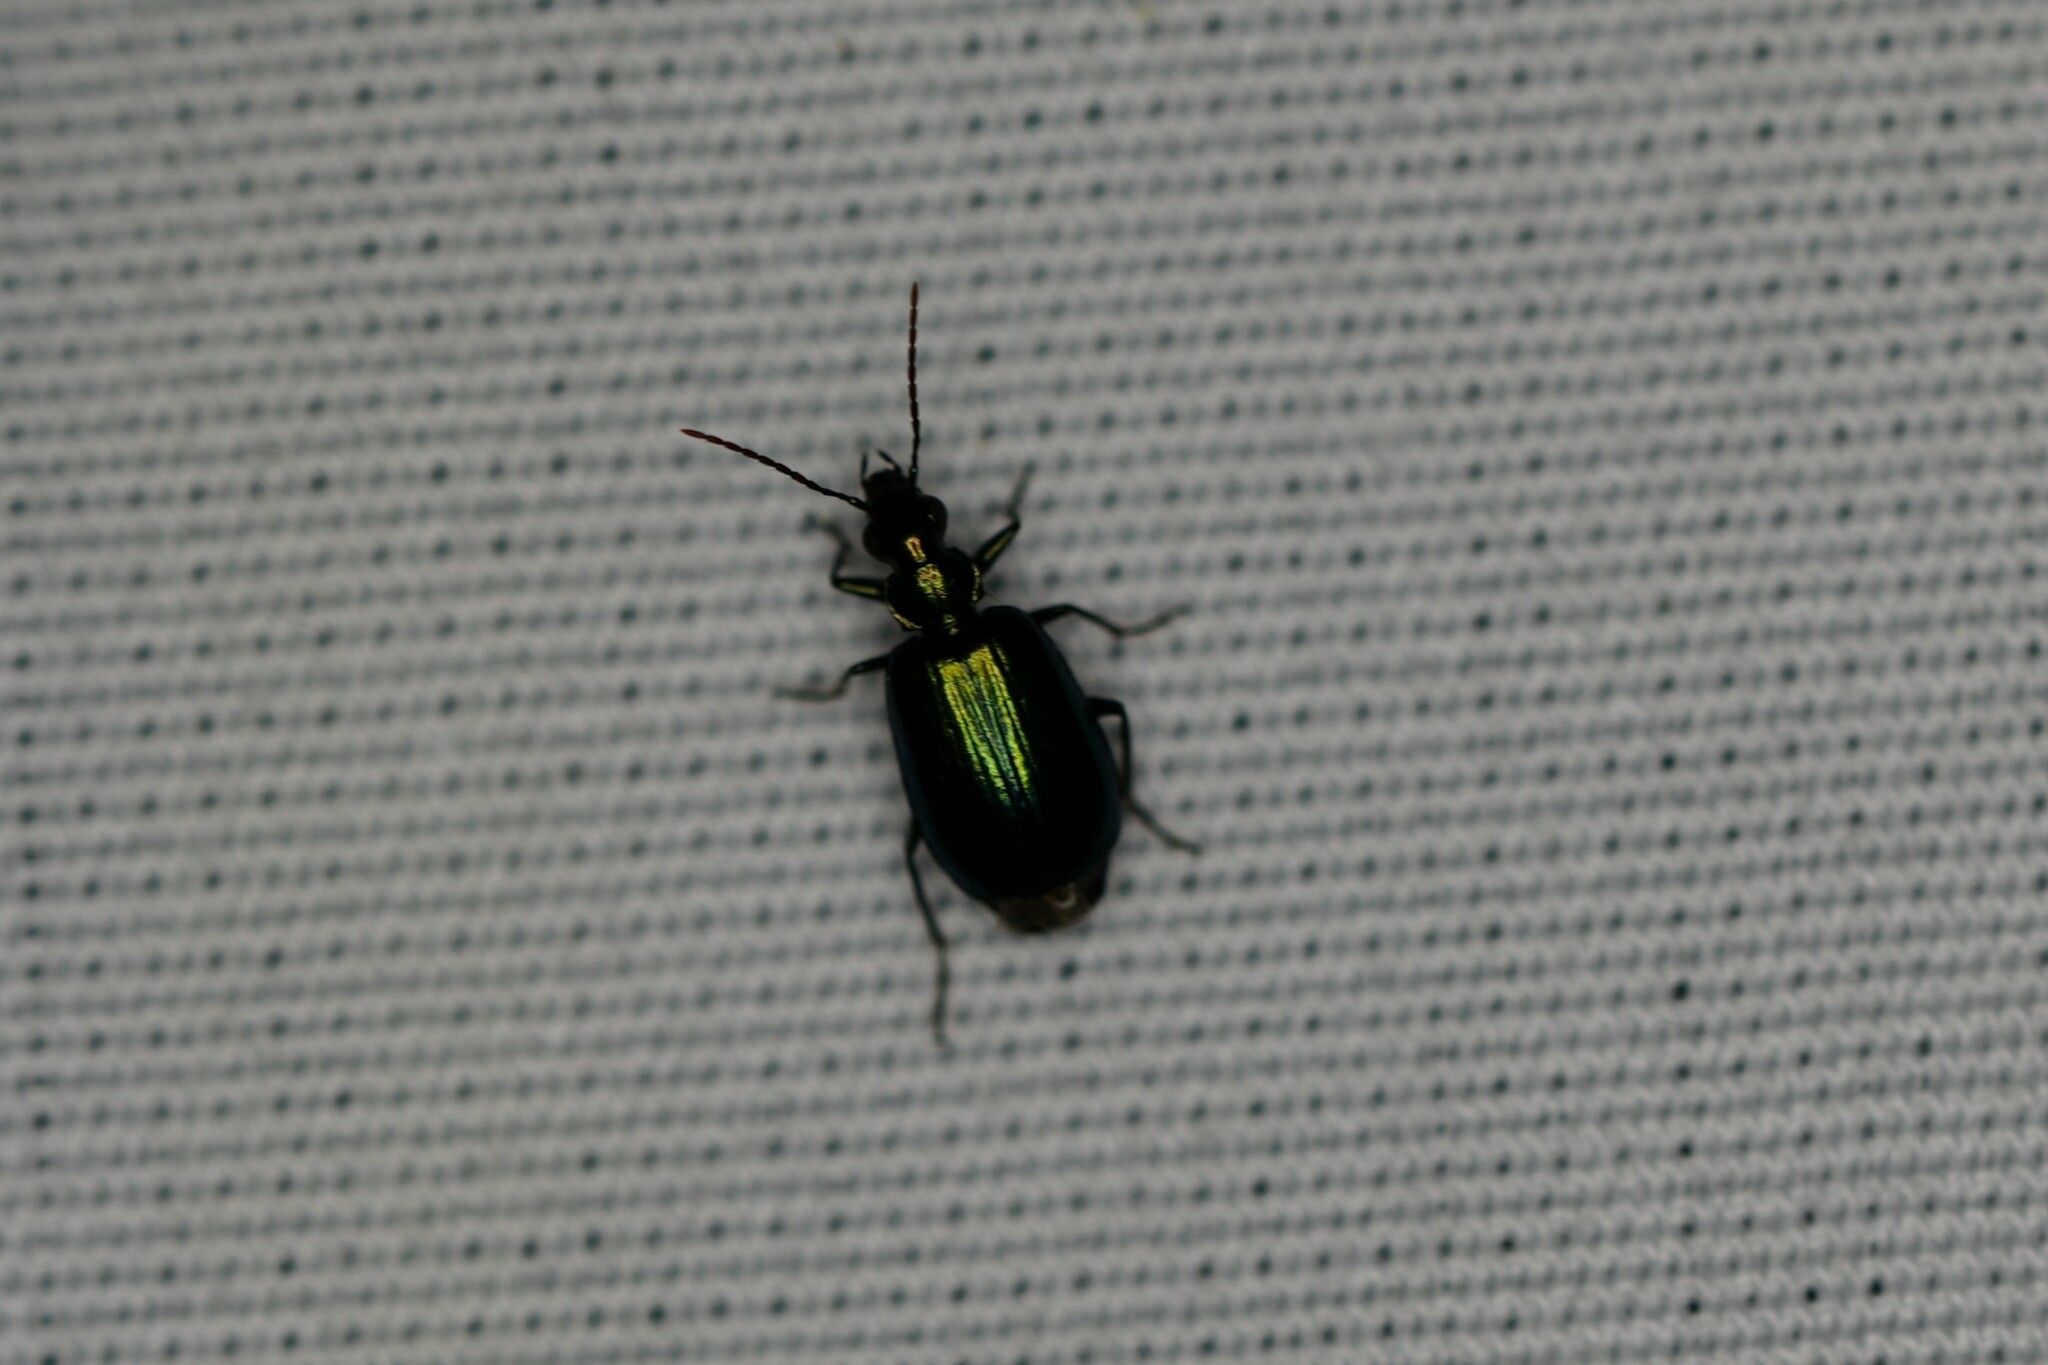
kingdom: Animalia
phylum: Arthropoda
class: Insecta
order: Coleoptera
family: Carabidae
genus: Lebia
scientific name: Lebia viridis
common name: Flower lebia beetle
